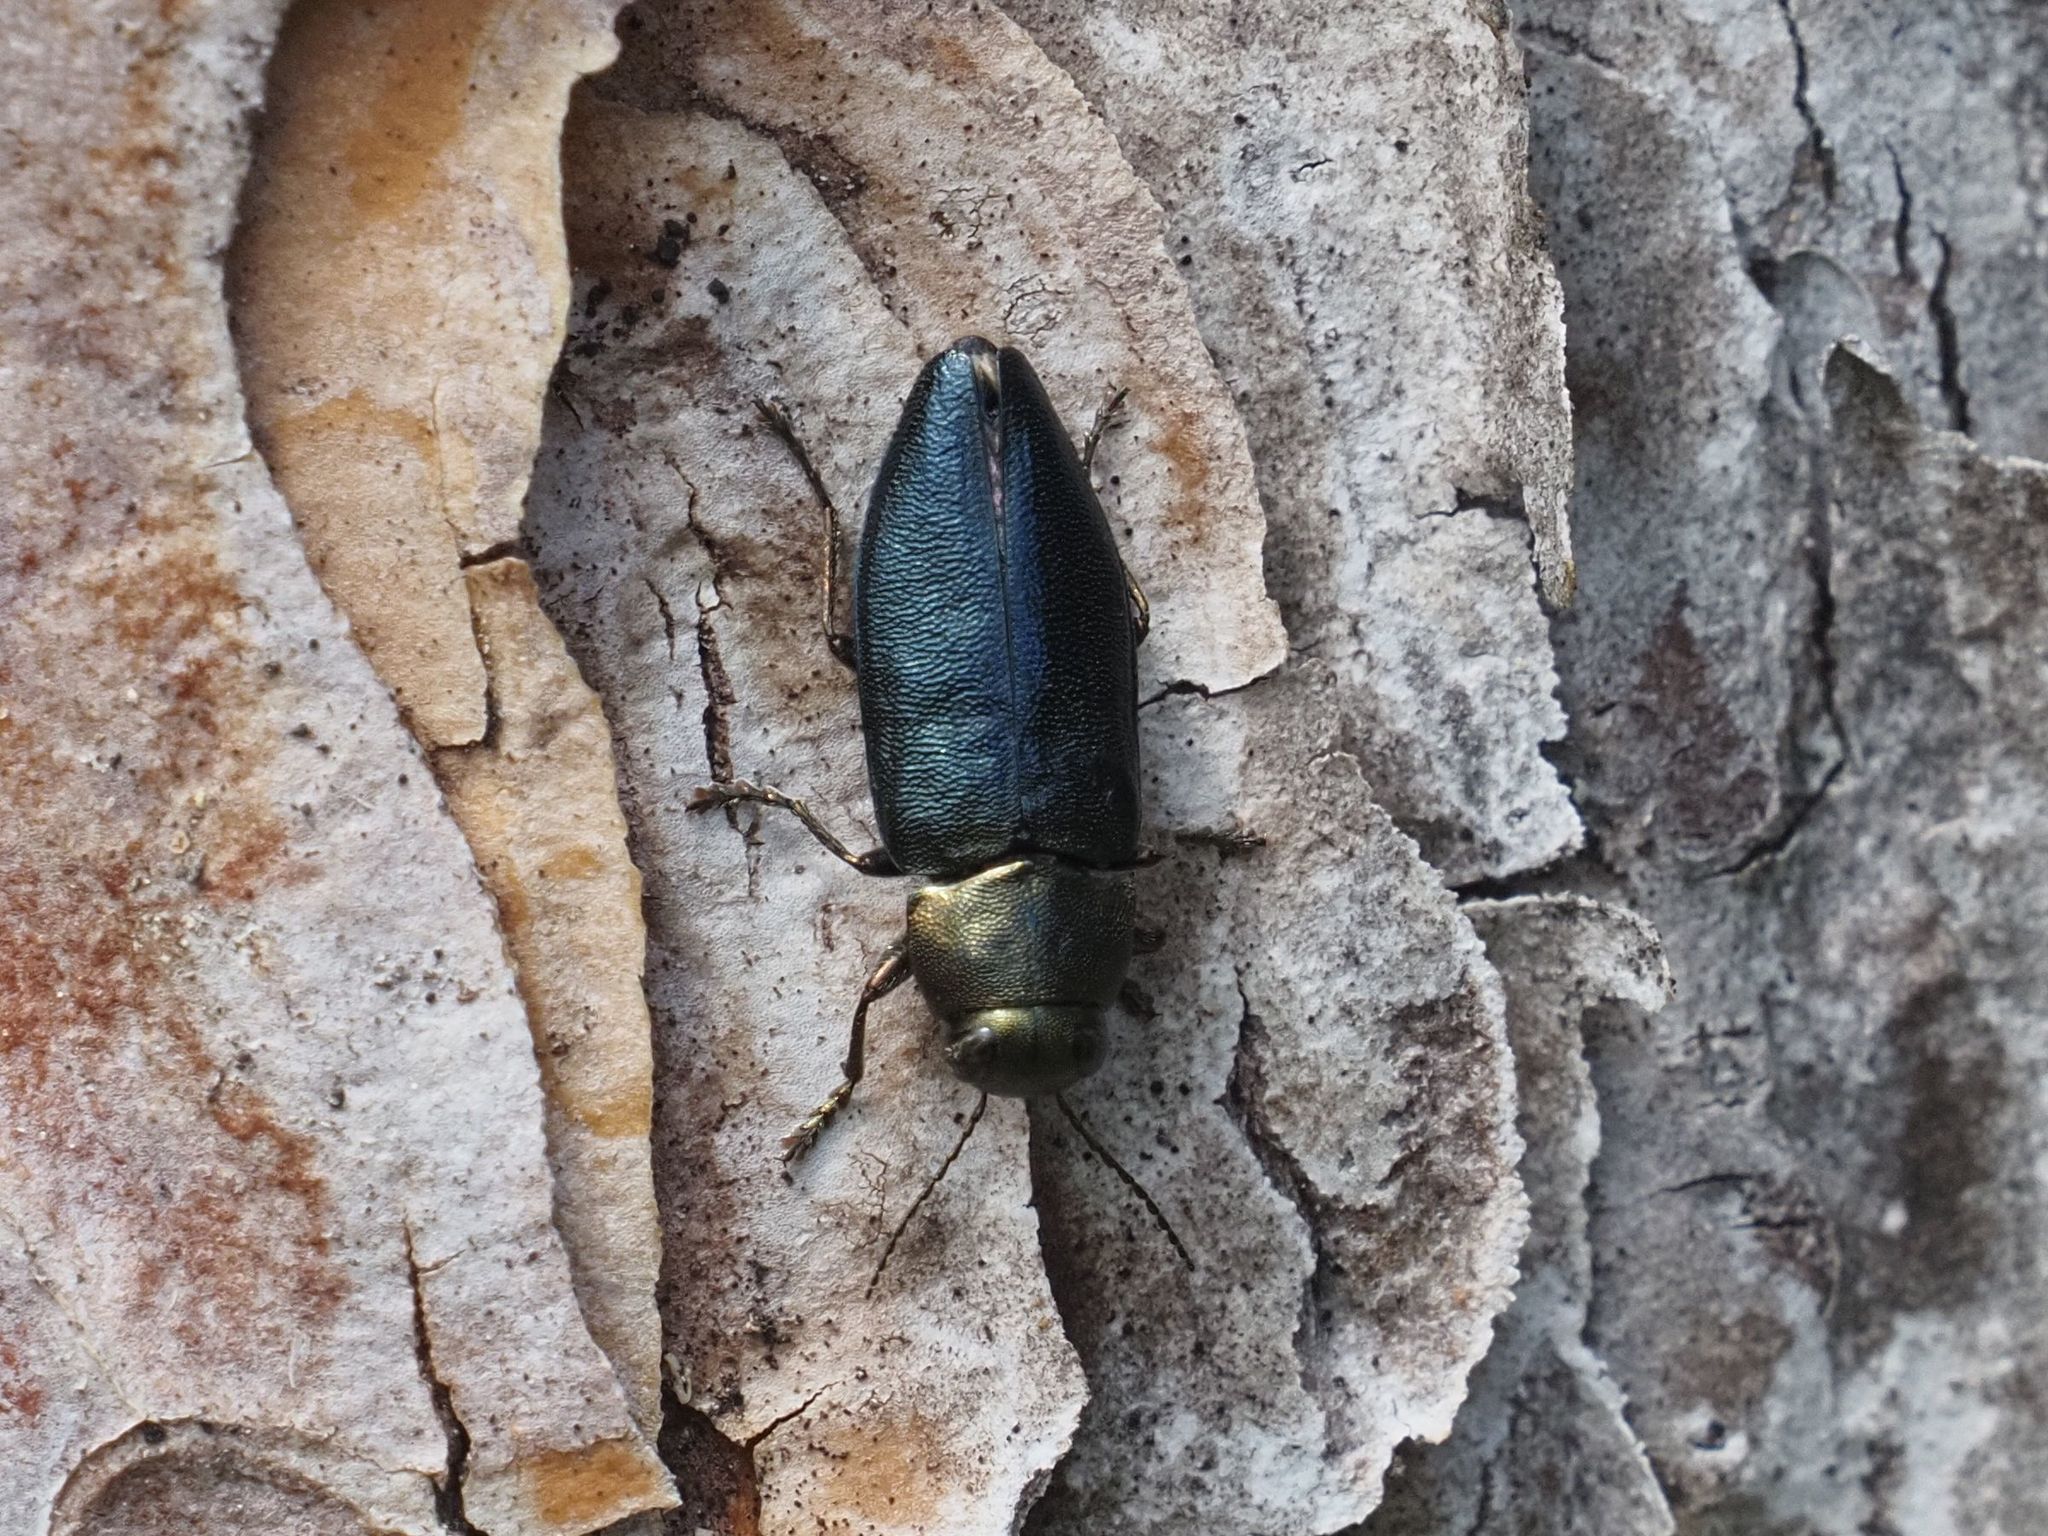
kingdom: Animalia
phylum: Arthropoda
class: Insecta
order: Coleoptera
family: Buprestidae
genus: Phaenops
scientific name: Phaenops cyanea
